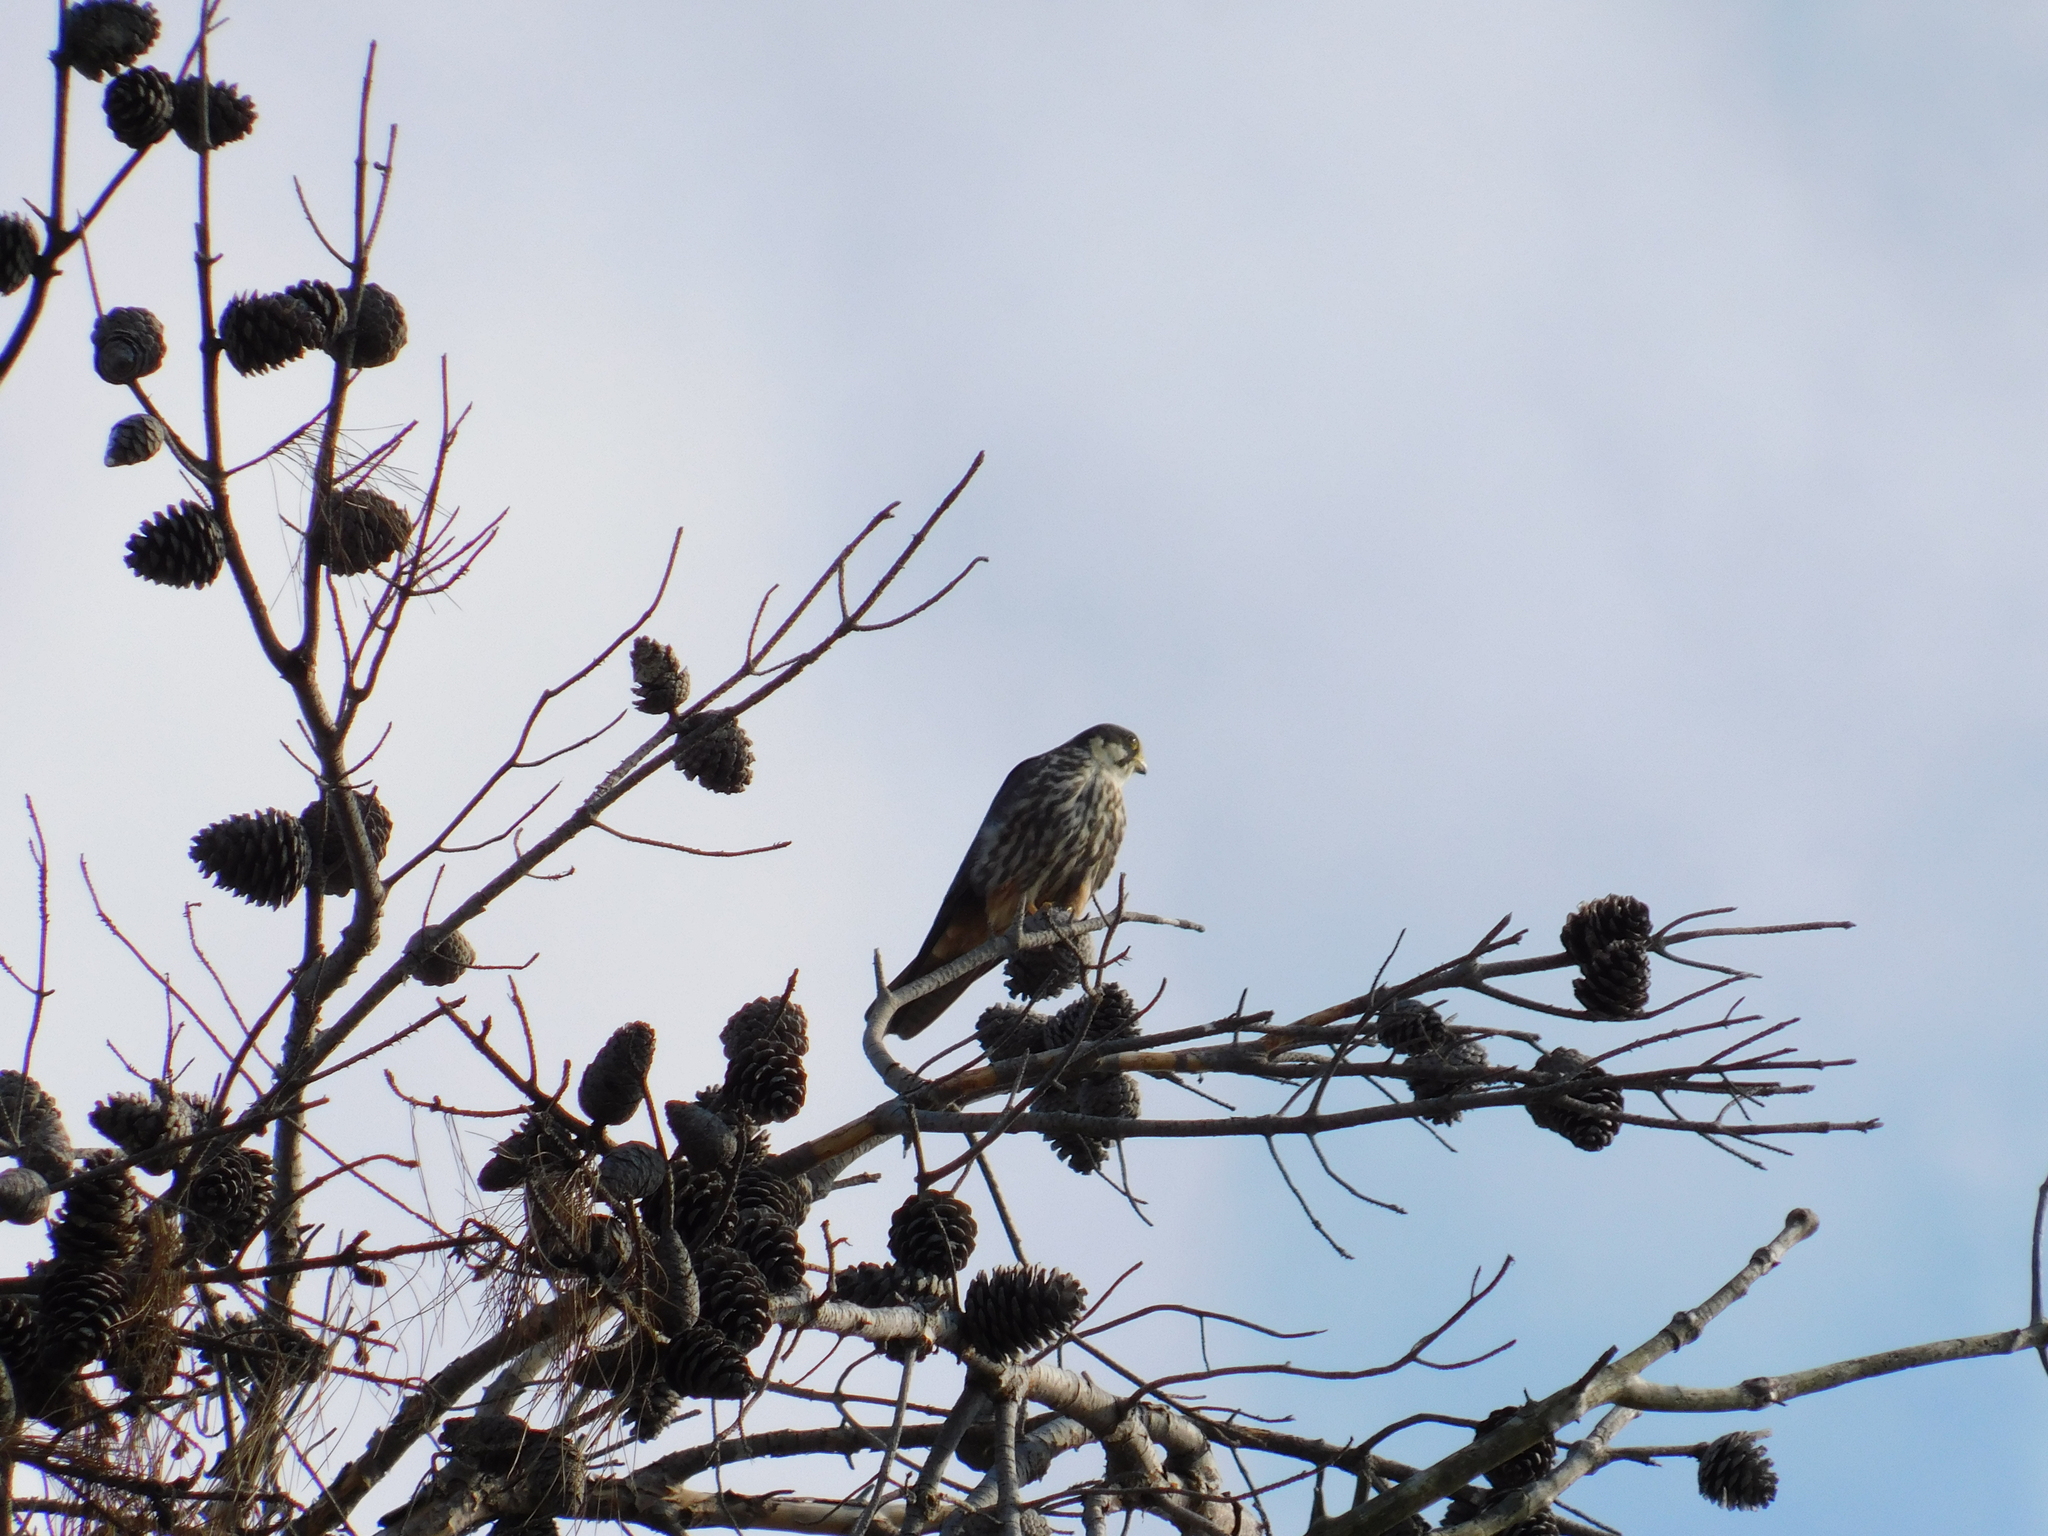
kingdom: Animalia
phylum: Chordata
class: Aves
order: Falconiformes
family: Falconidae
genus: Falco
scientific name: Falco subbuteo
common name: Eurasian hobby
